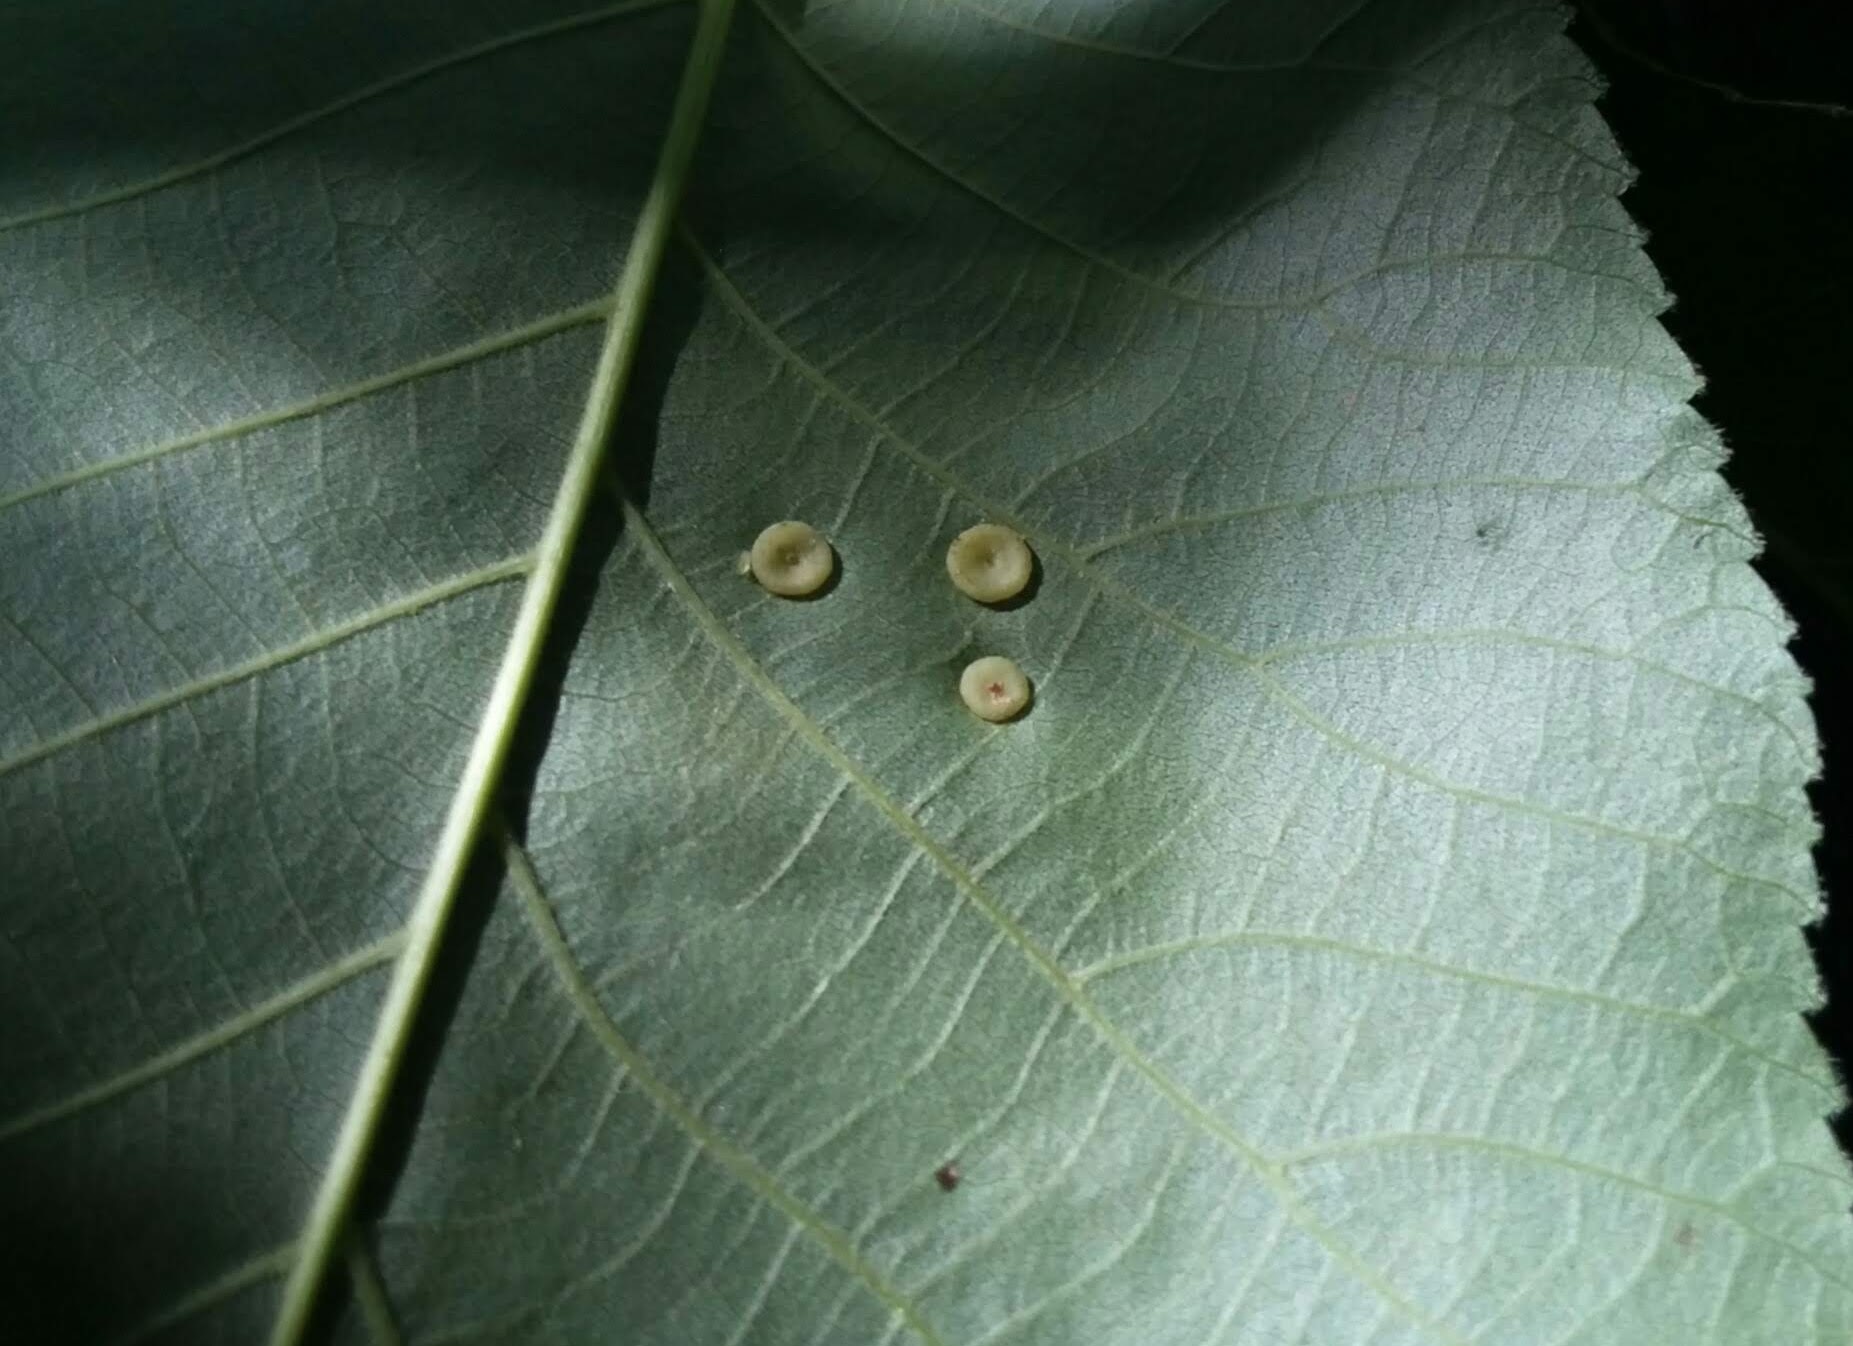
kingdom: Animalia
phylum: Arthropoda
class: Insecta
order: Diptera
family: Cecidomyiidae
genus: Caryomyia
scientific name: Caryomyia biretta
